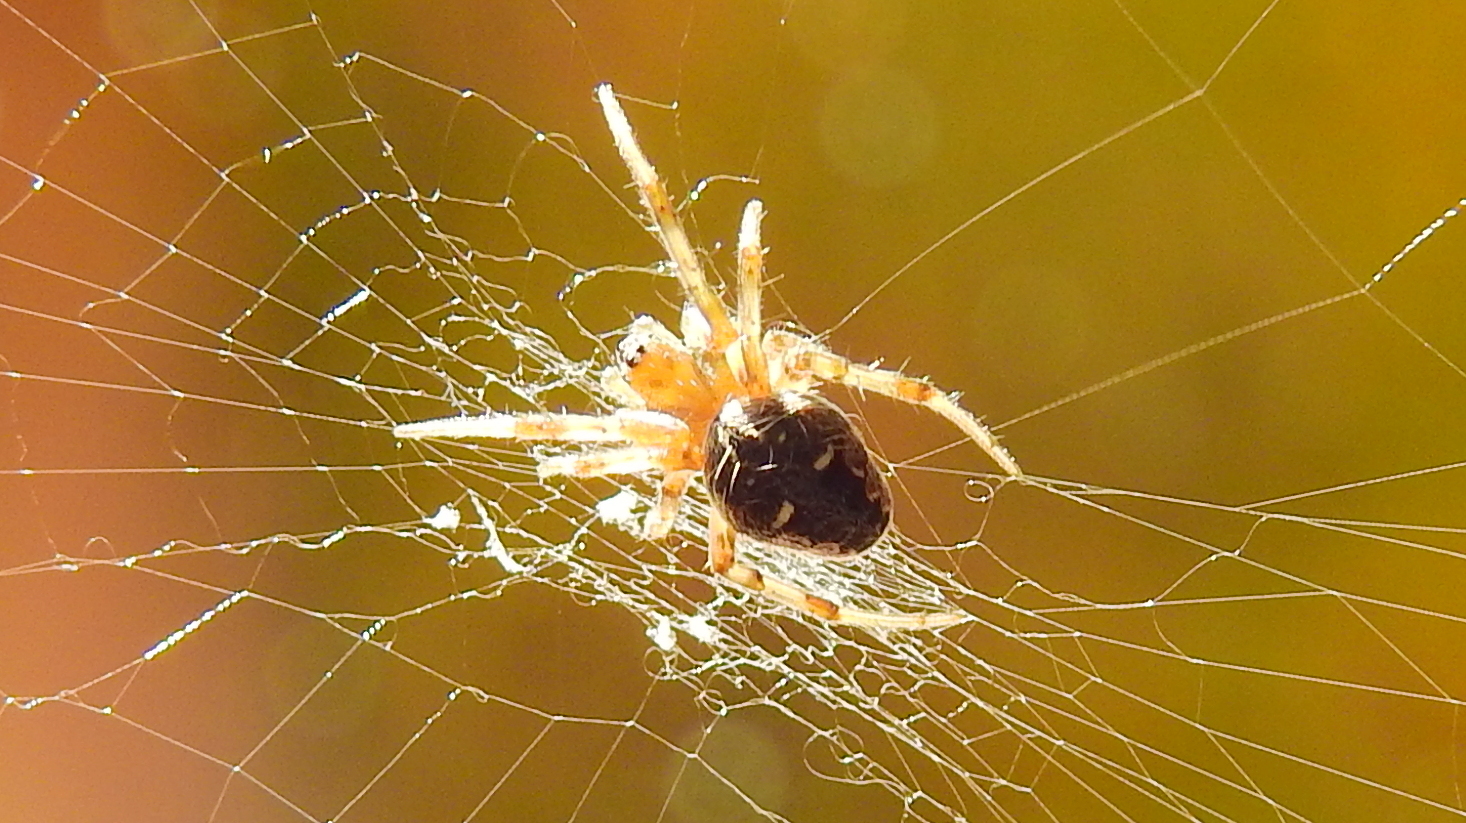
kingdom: Animalia
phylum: Arthropoda
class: Arachnida
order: Araneae
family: Araneidae
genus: Metepeira
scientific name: Metepeira
